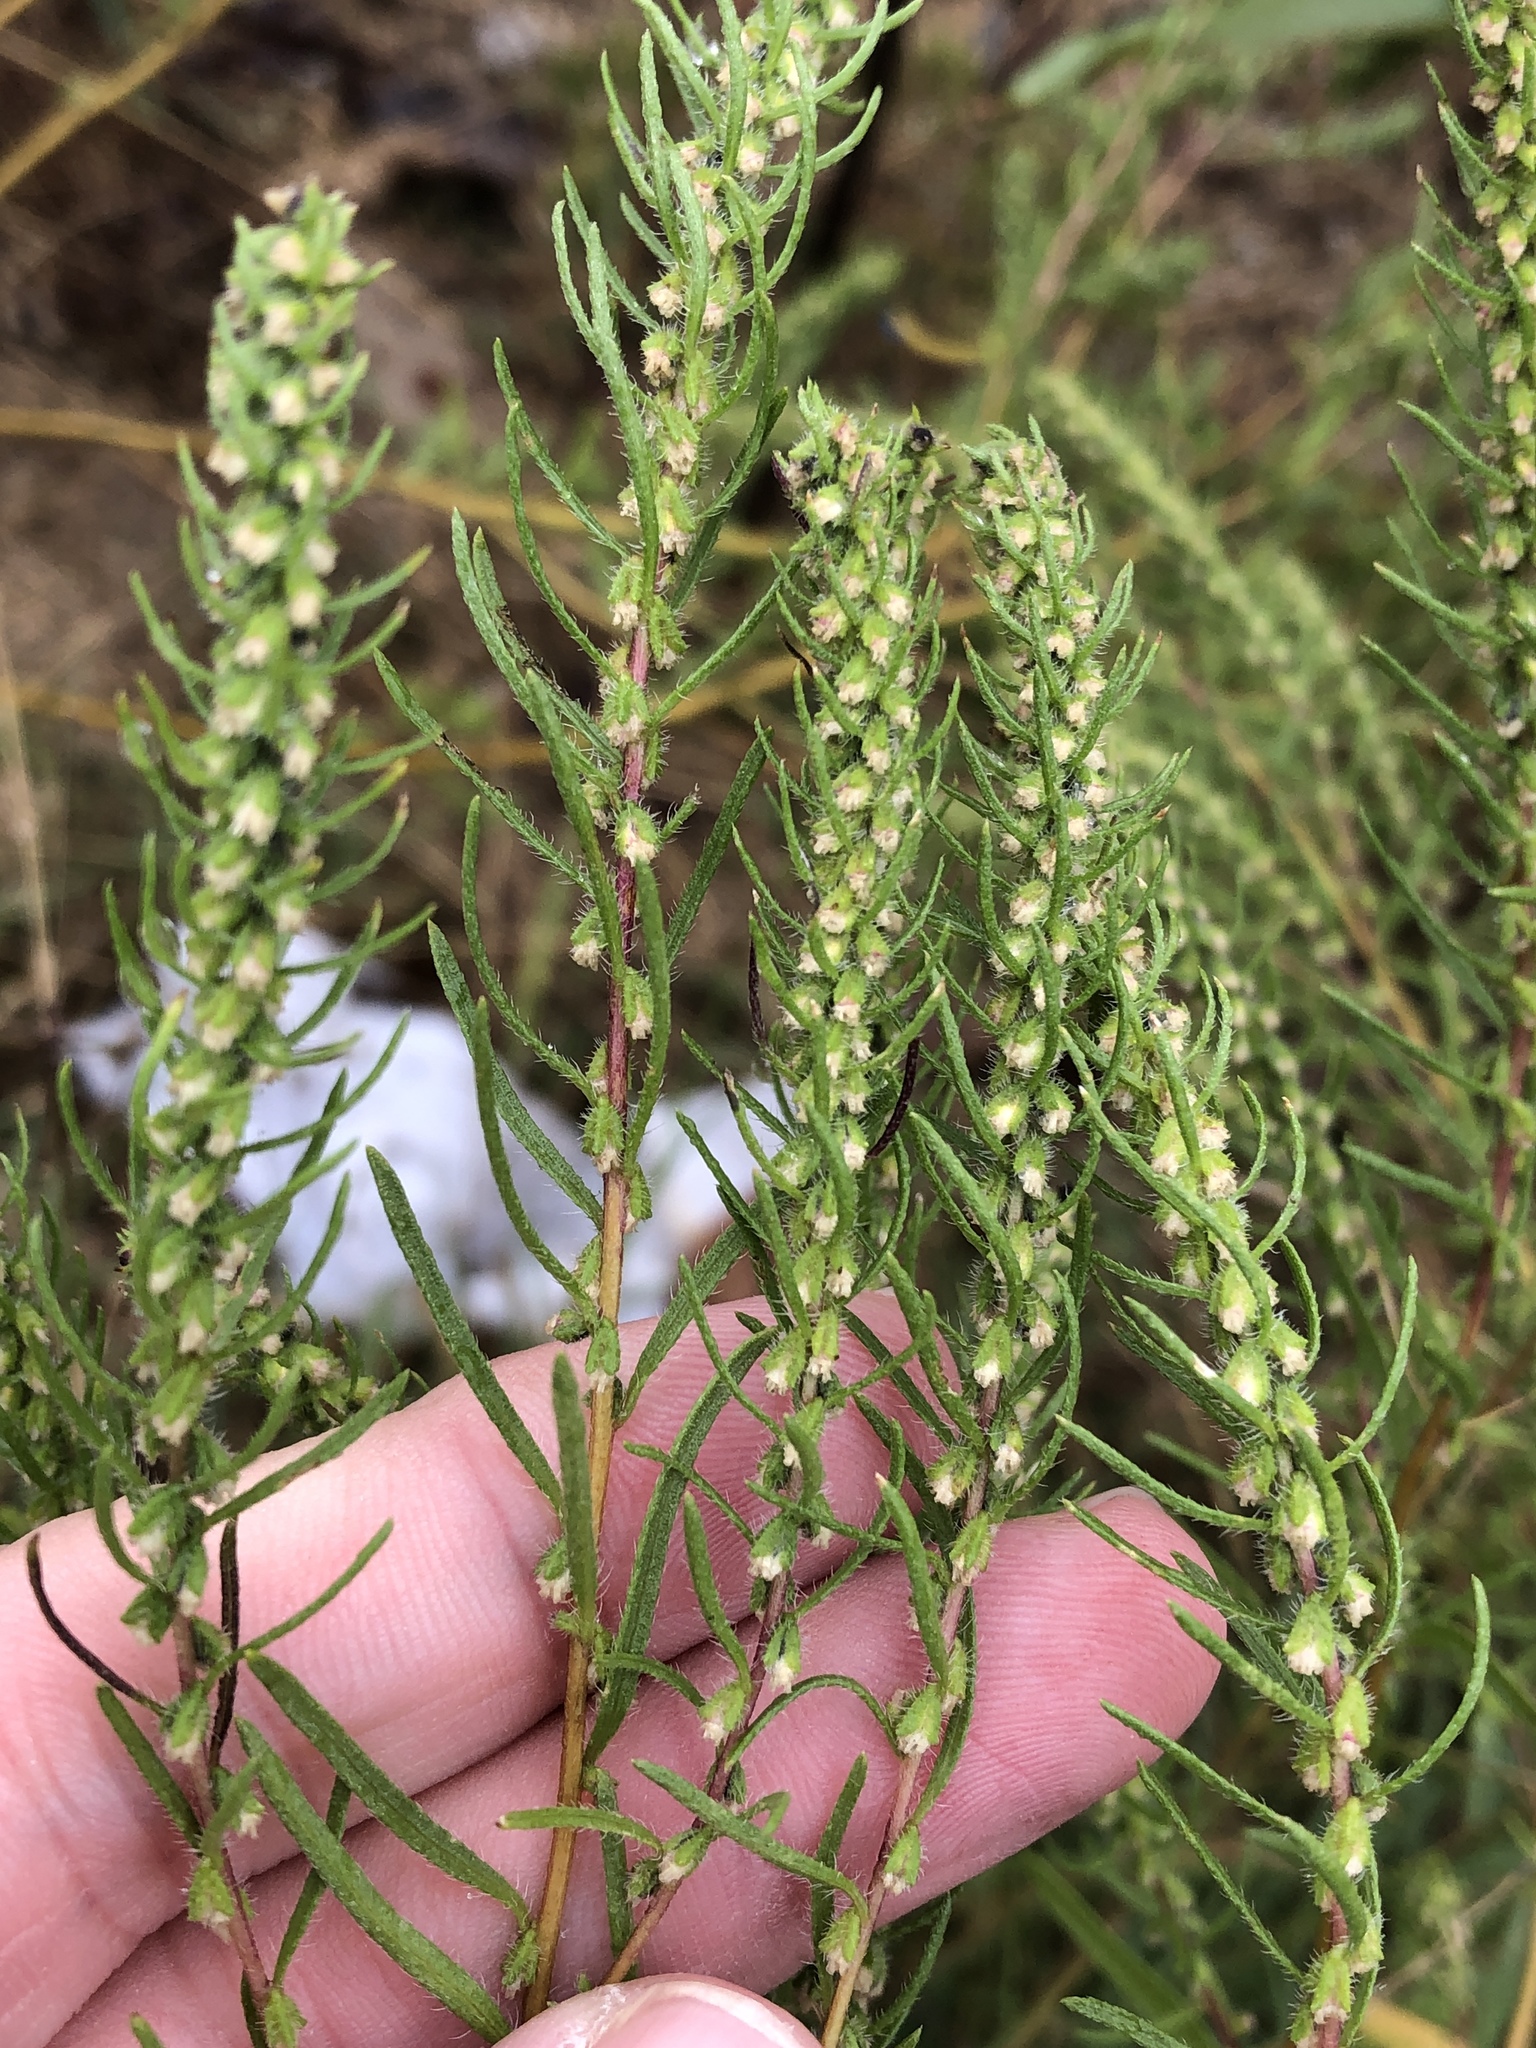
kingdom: Plantae
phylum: Tracheophyta
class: Magnoliopsida
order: Asterales
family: Asteraceae
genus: Iva
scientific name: Iva asperifolia
